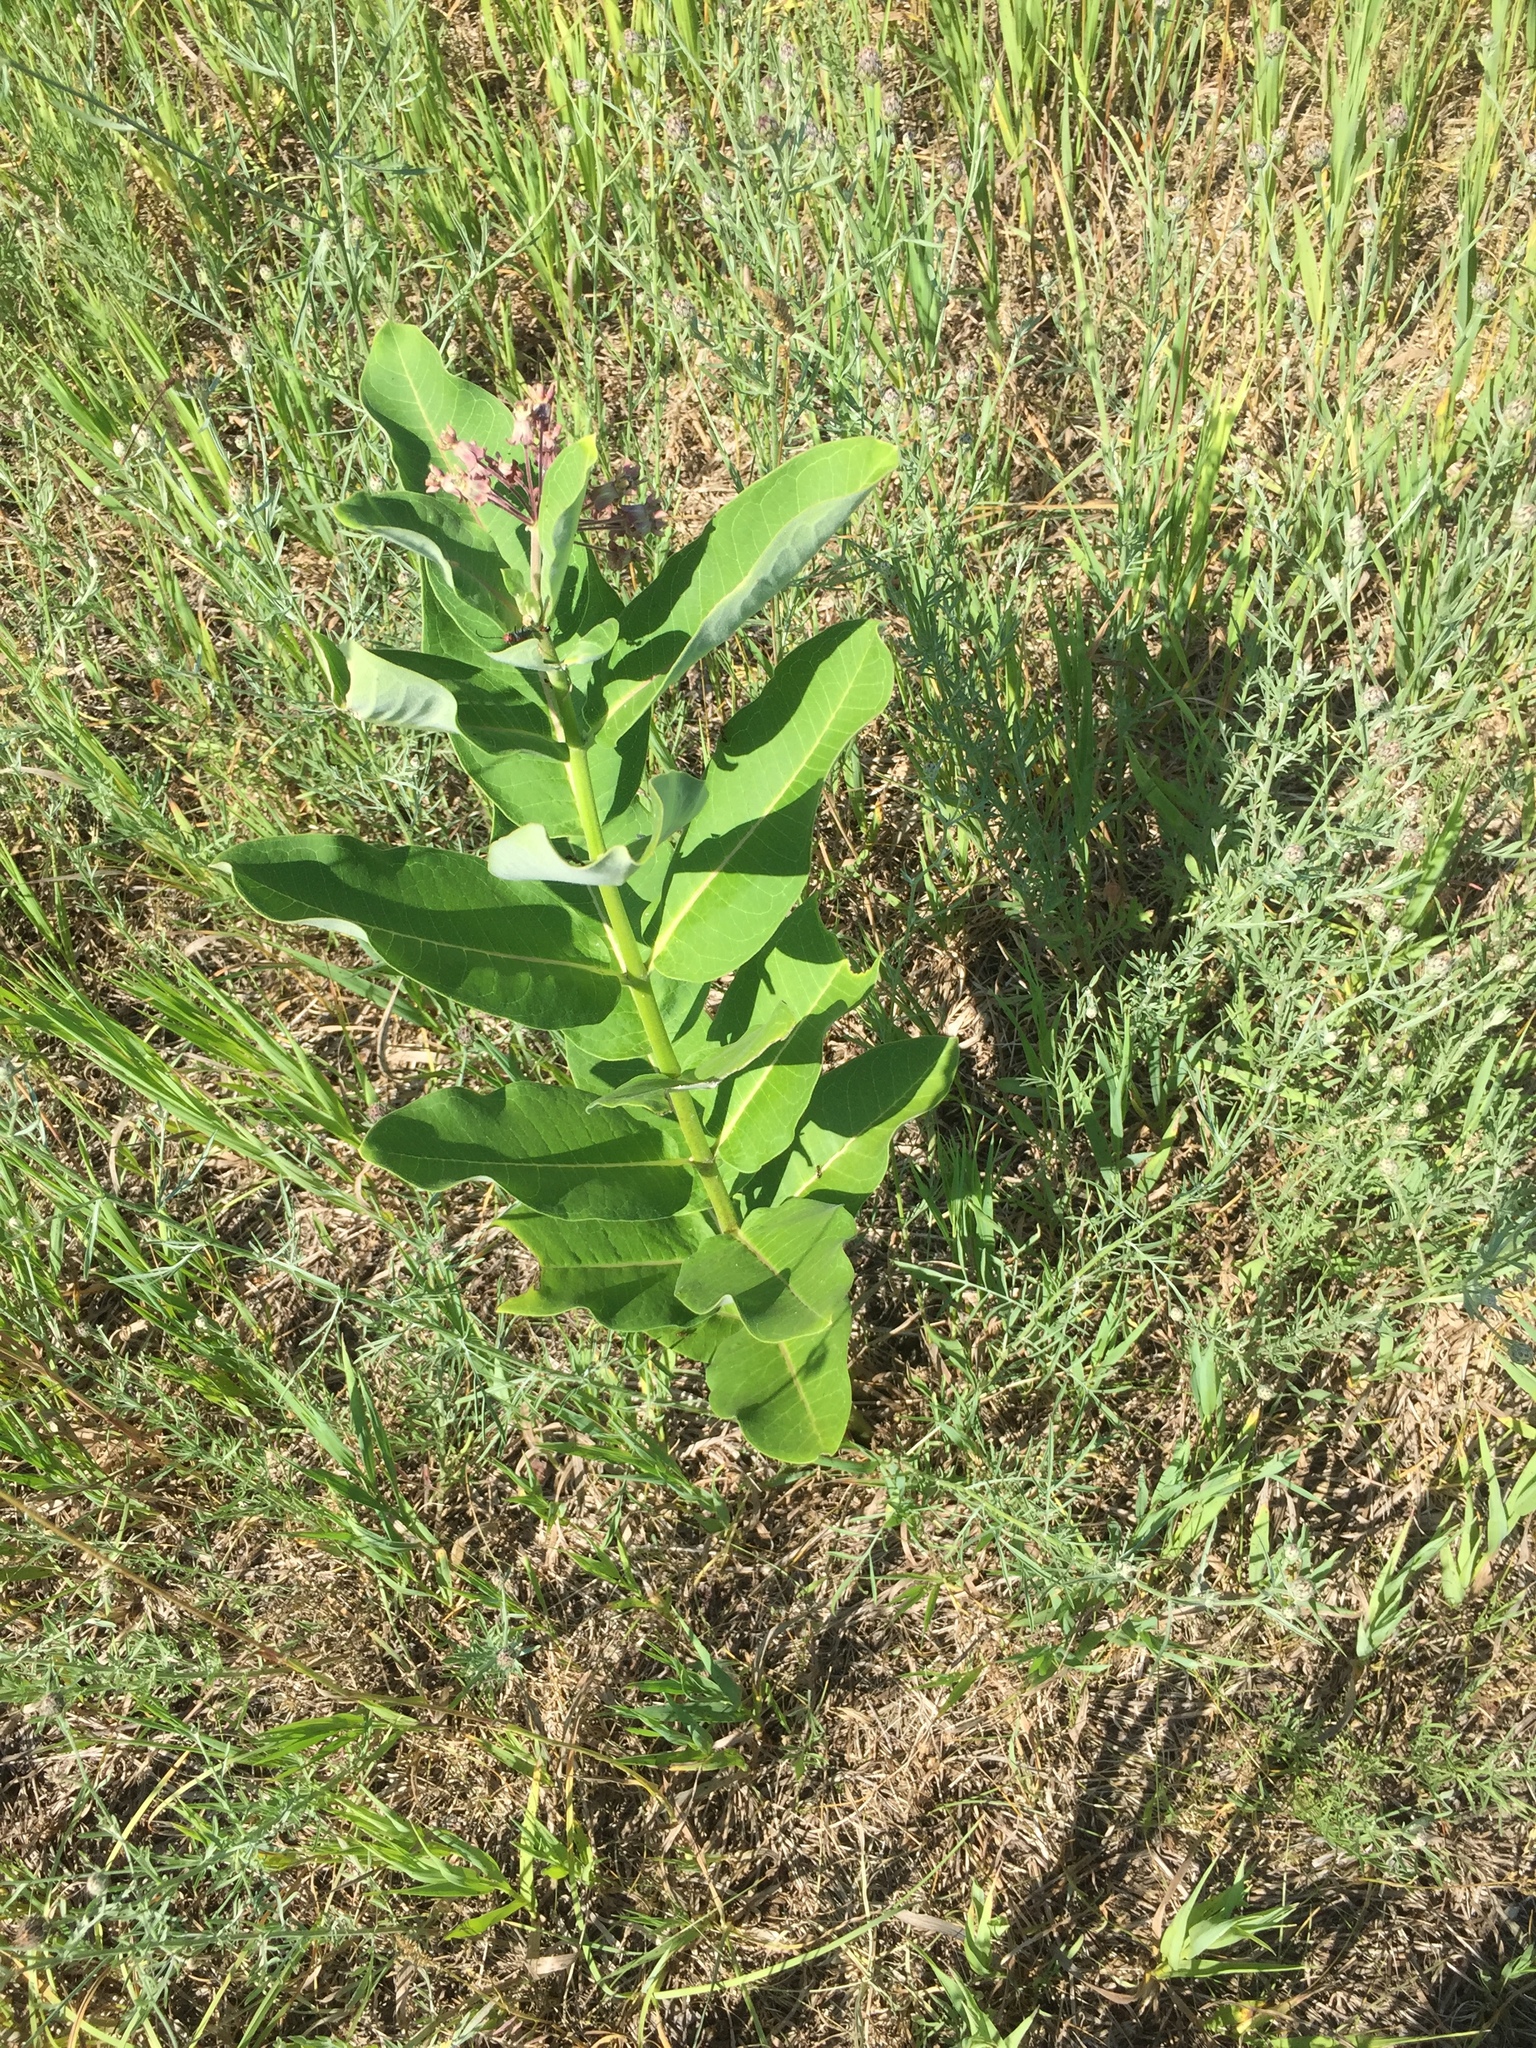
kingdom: Plantae
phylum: Tracheophyta
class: Magnoliopsida
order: Gentianales
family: Apocynaceae
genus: Asclepias
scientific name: Asclepias syriaca
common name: Common milkweed
